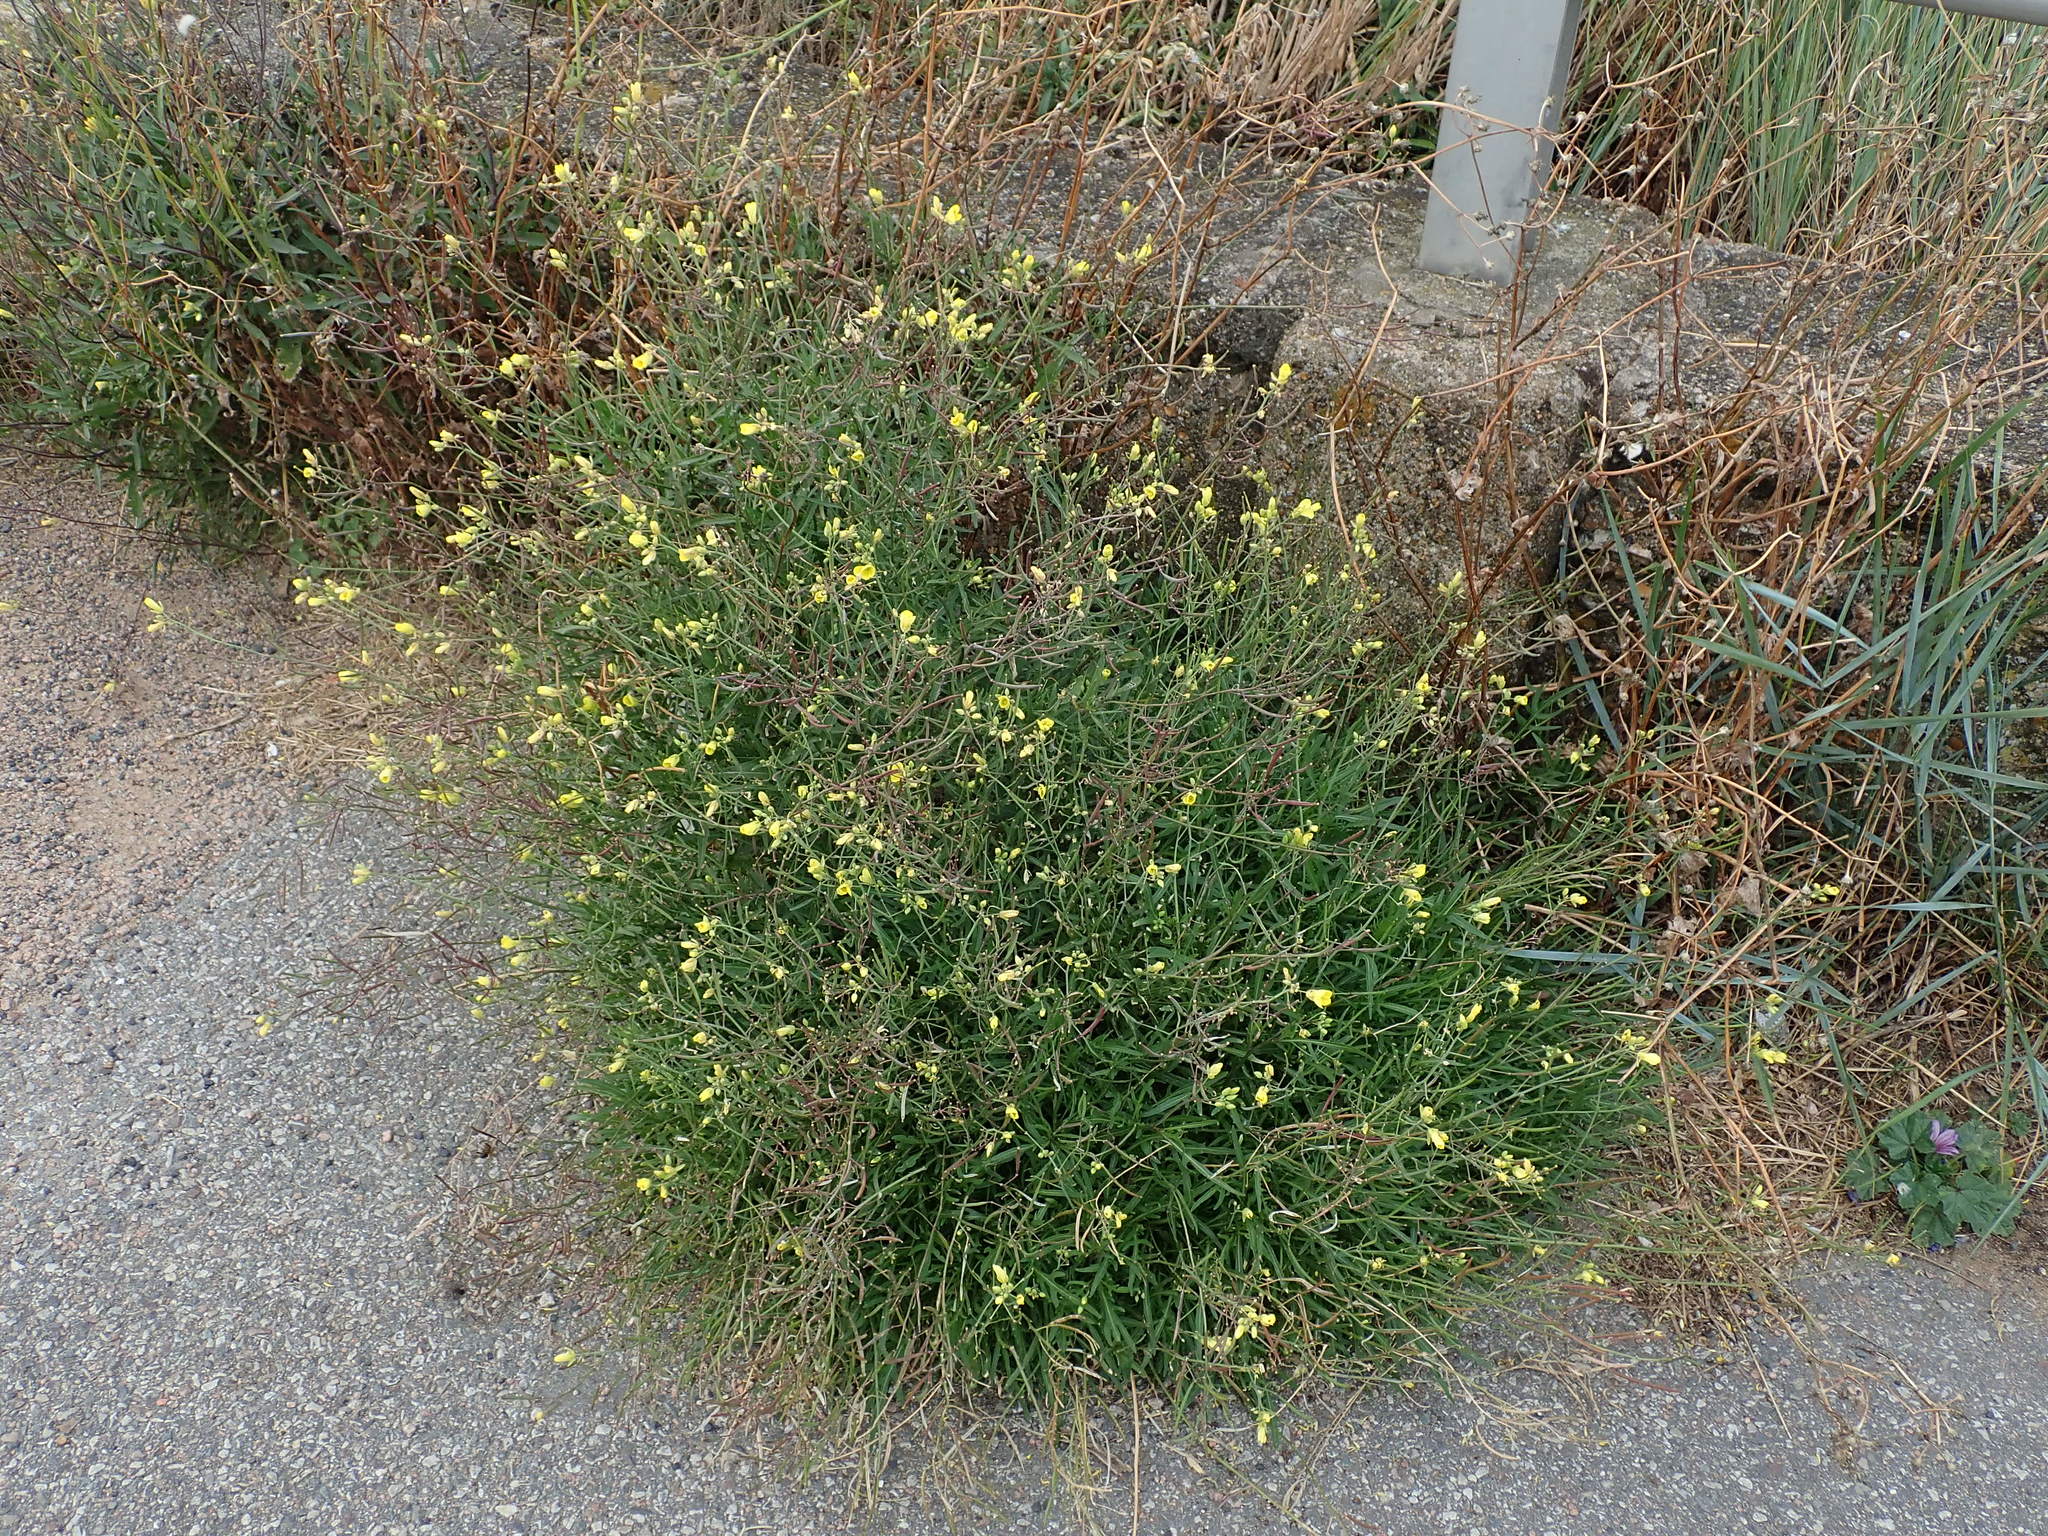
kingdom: Plantae
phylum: Tracheophyta
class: Magnoliopsida
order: Brassicales
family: Brassicaceae
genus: Diplotaxis
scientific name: Diplotaxis tenuifolia
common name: Perennial wall-rocket
